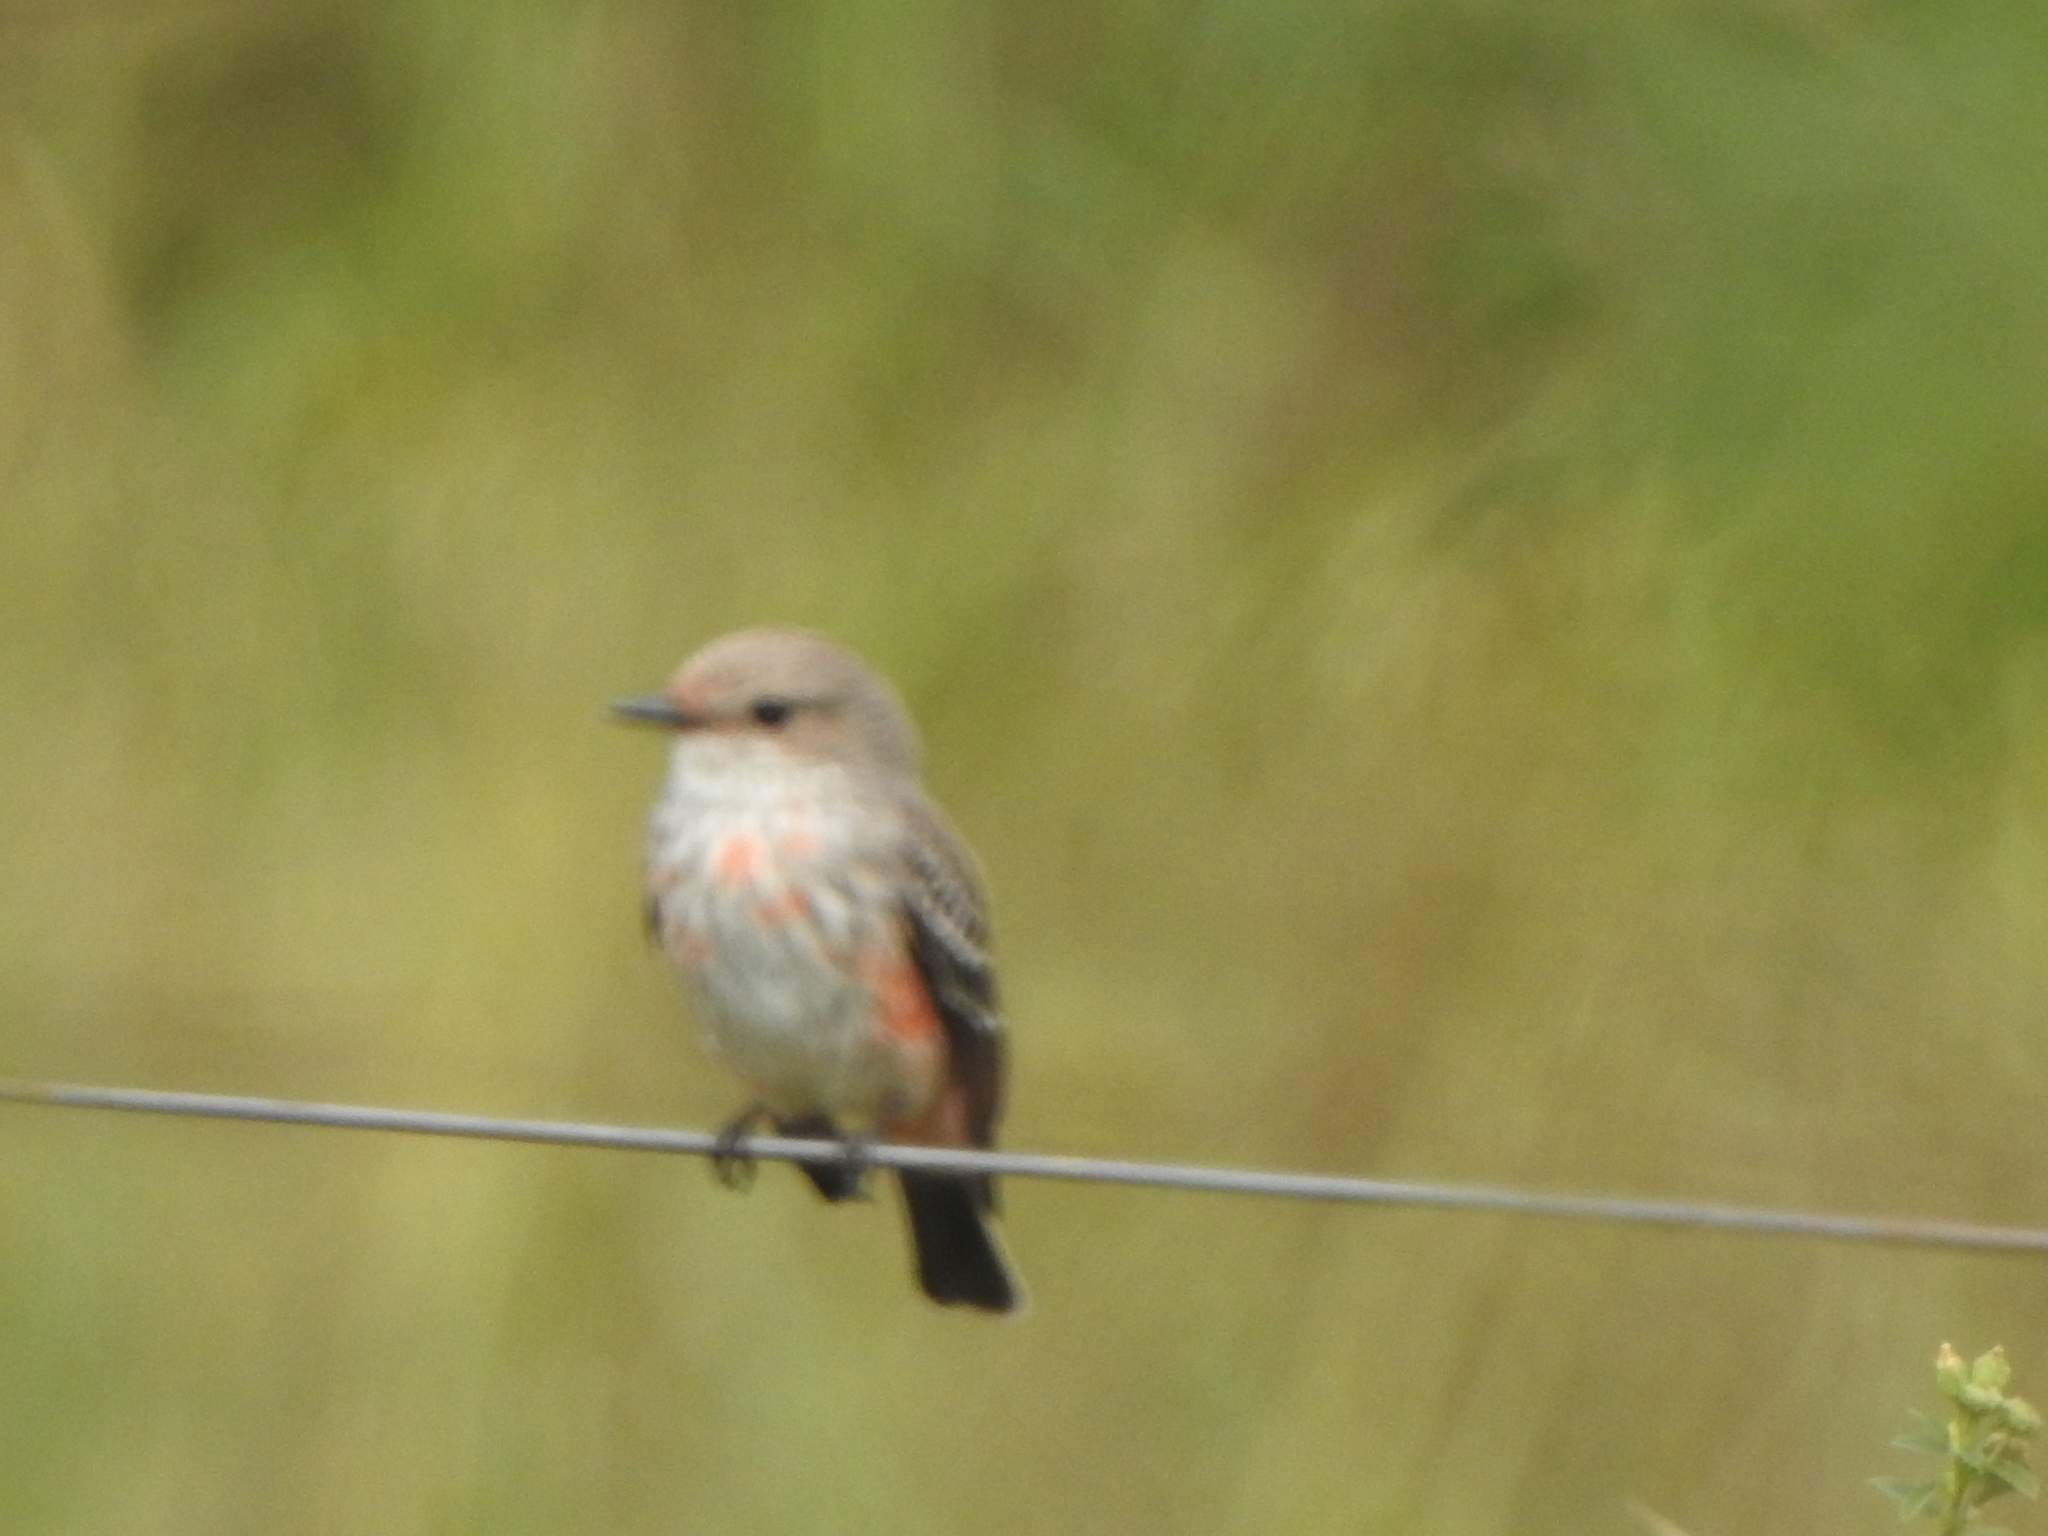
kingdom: Animalia
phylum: Chordata
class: Aves
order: Passeriformes
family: Tyrannidae
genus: Pyrocephalus
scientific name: Pyrocephalus rubinus
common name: Vermilion flycatcher
